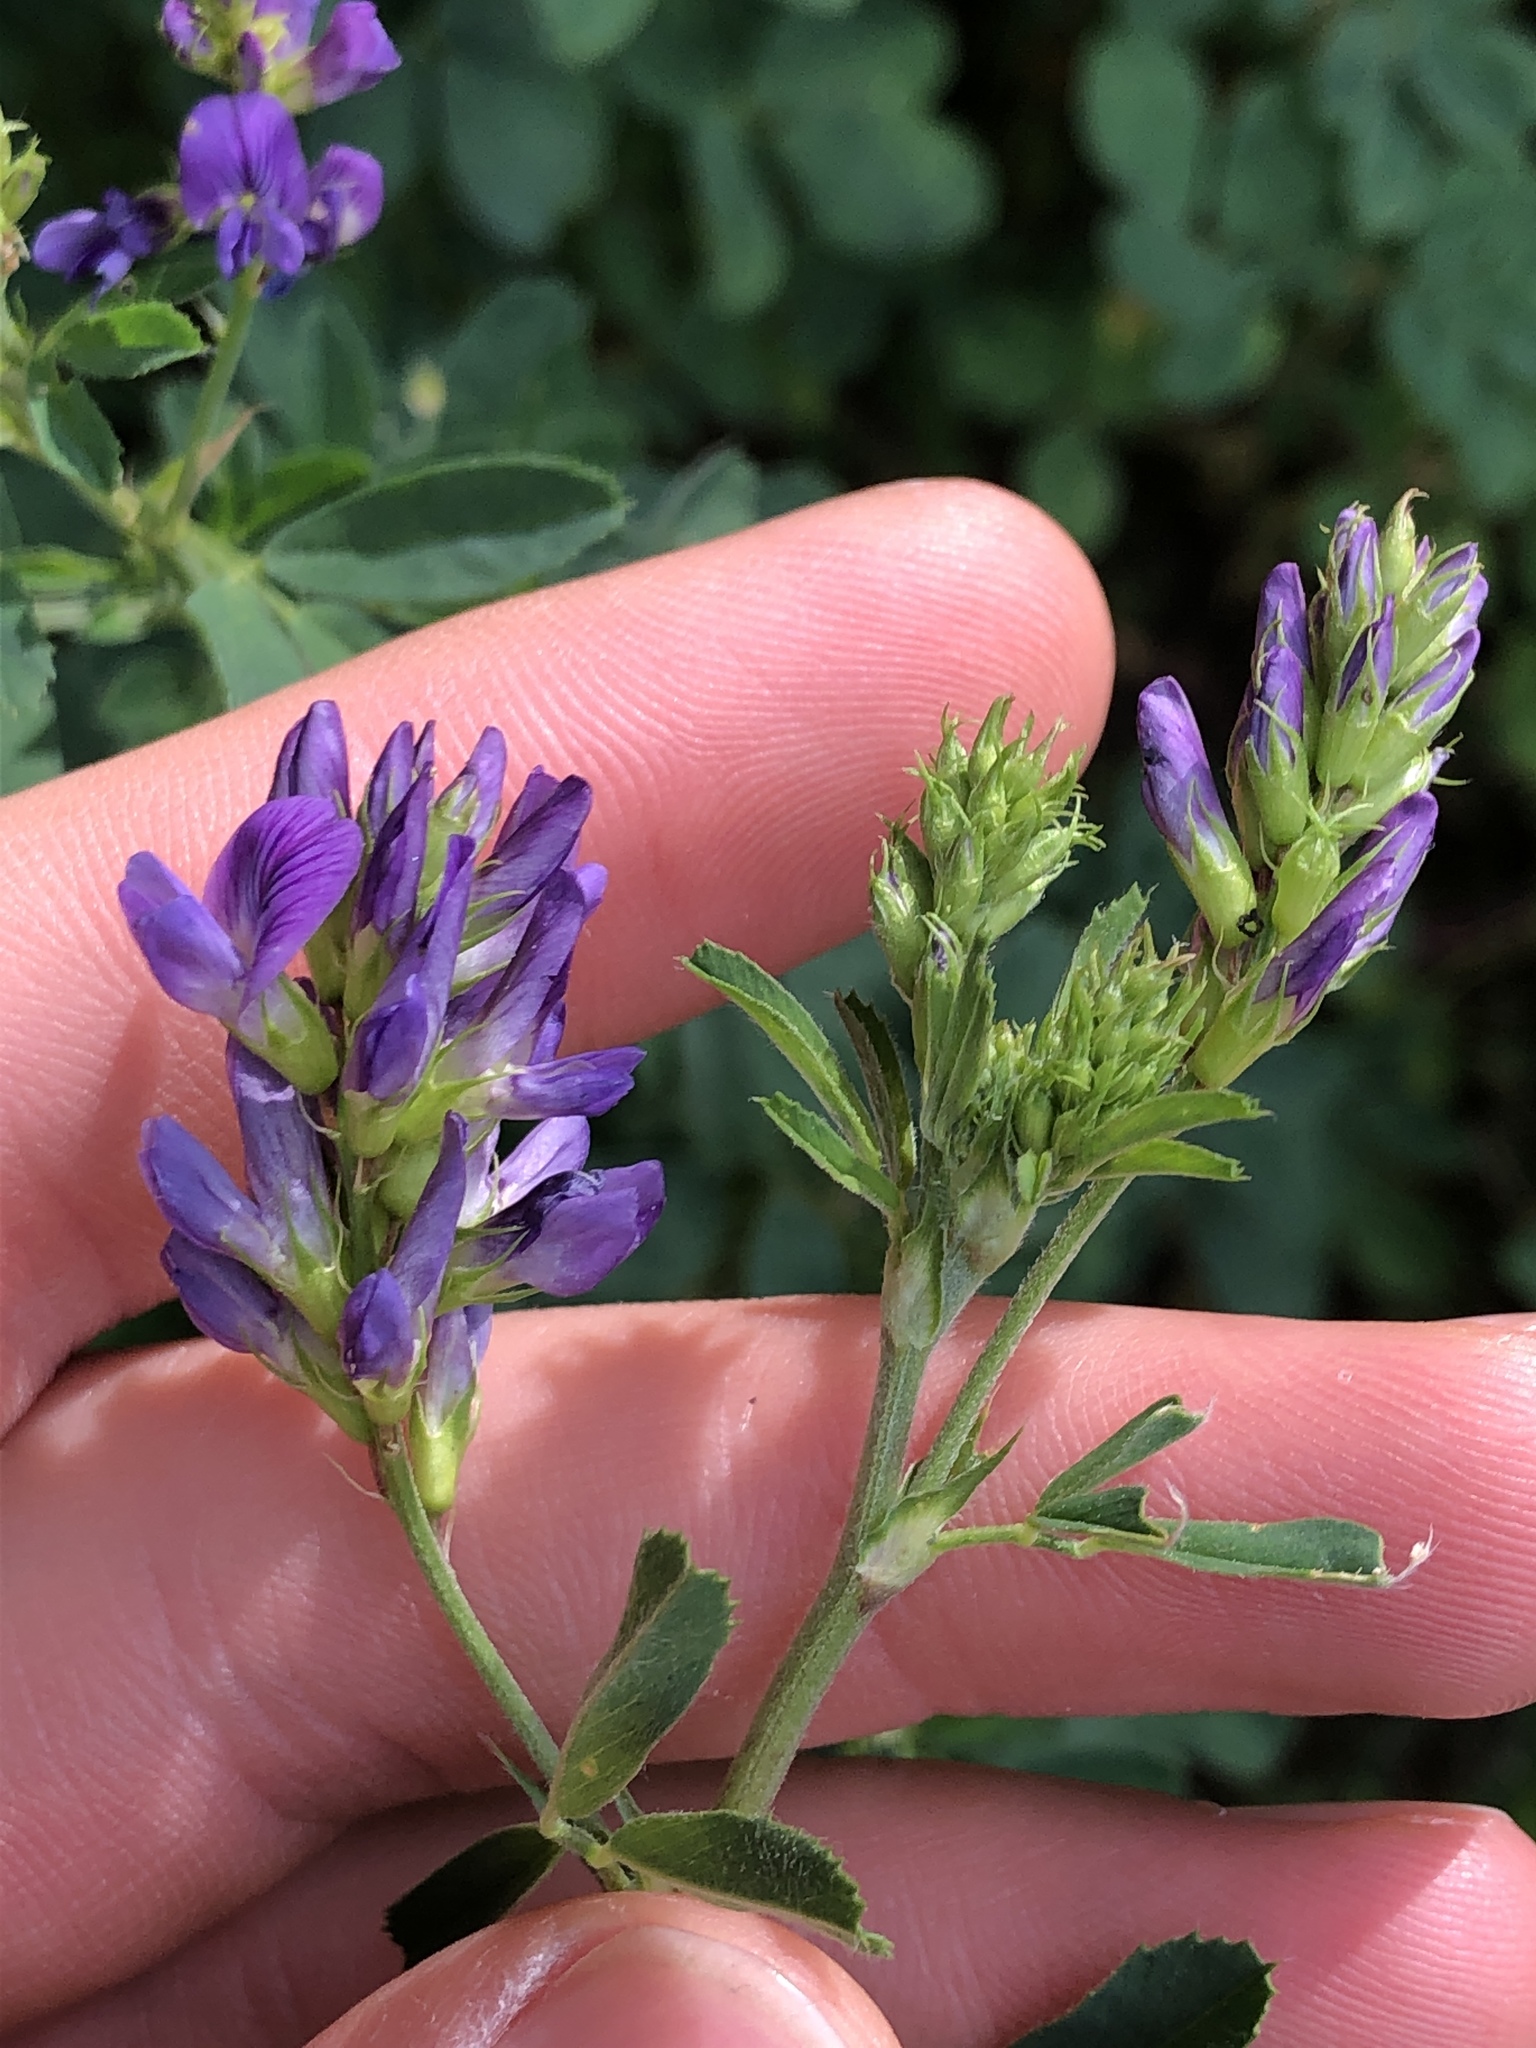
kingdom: Plantae
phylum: Tracheophyta
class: Magnoliopsida
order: Fabales
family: Fabaceae
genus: Medicago
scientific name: Medicago sativa
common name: Alfalfa
